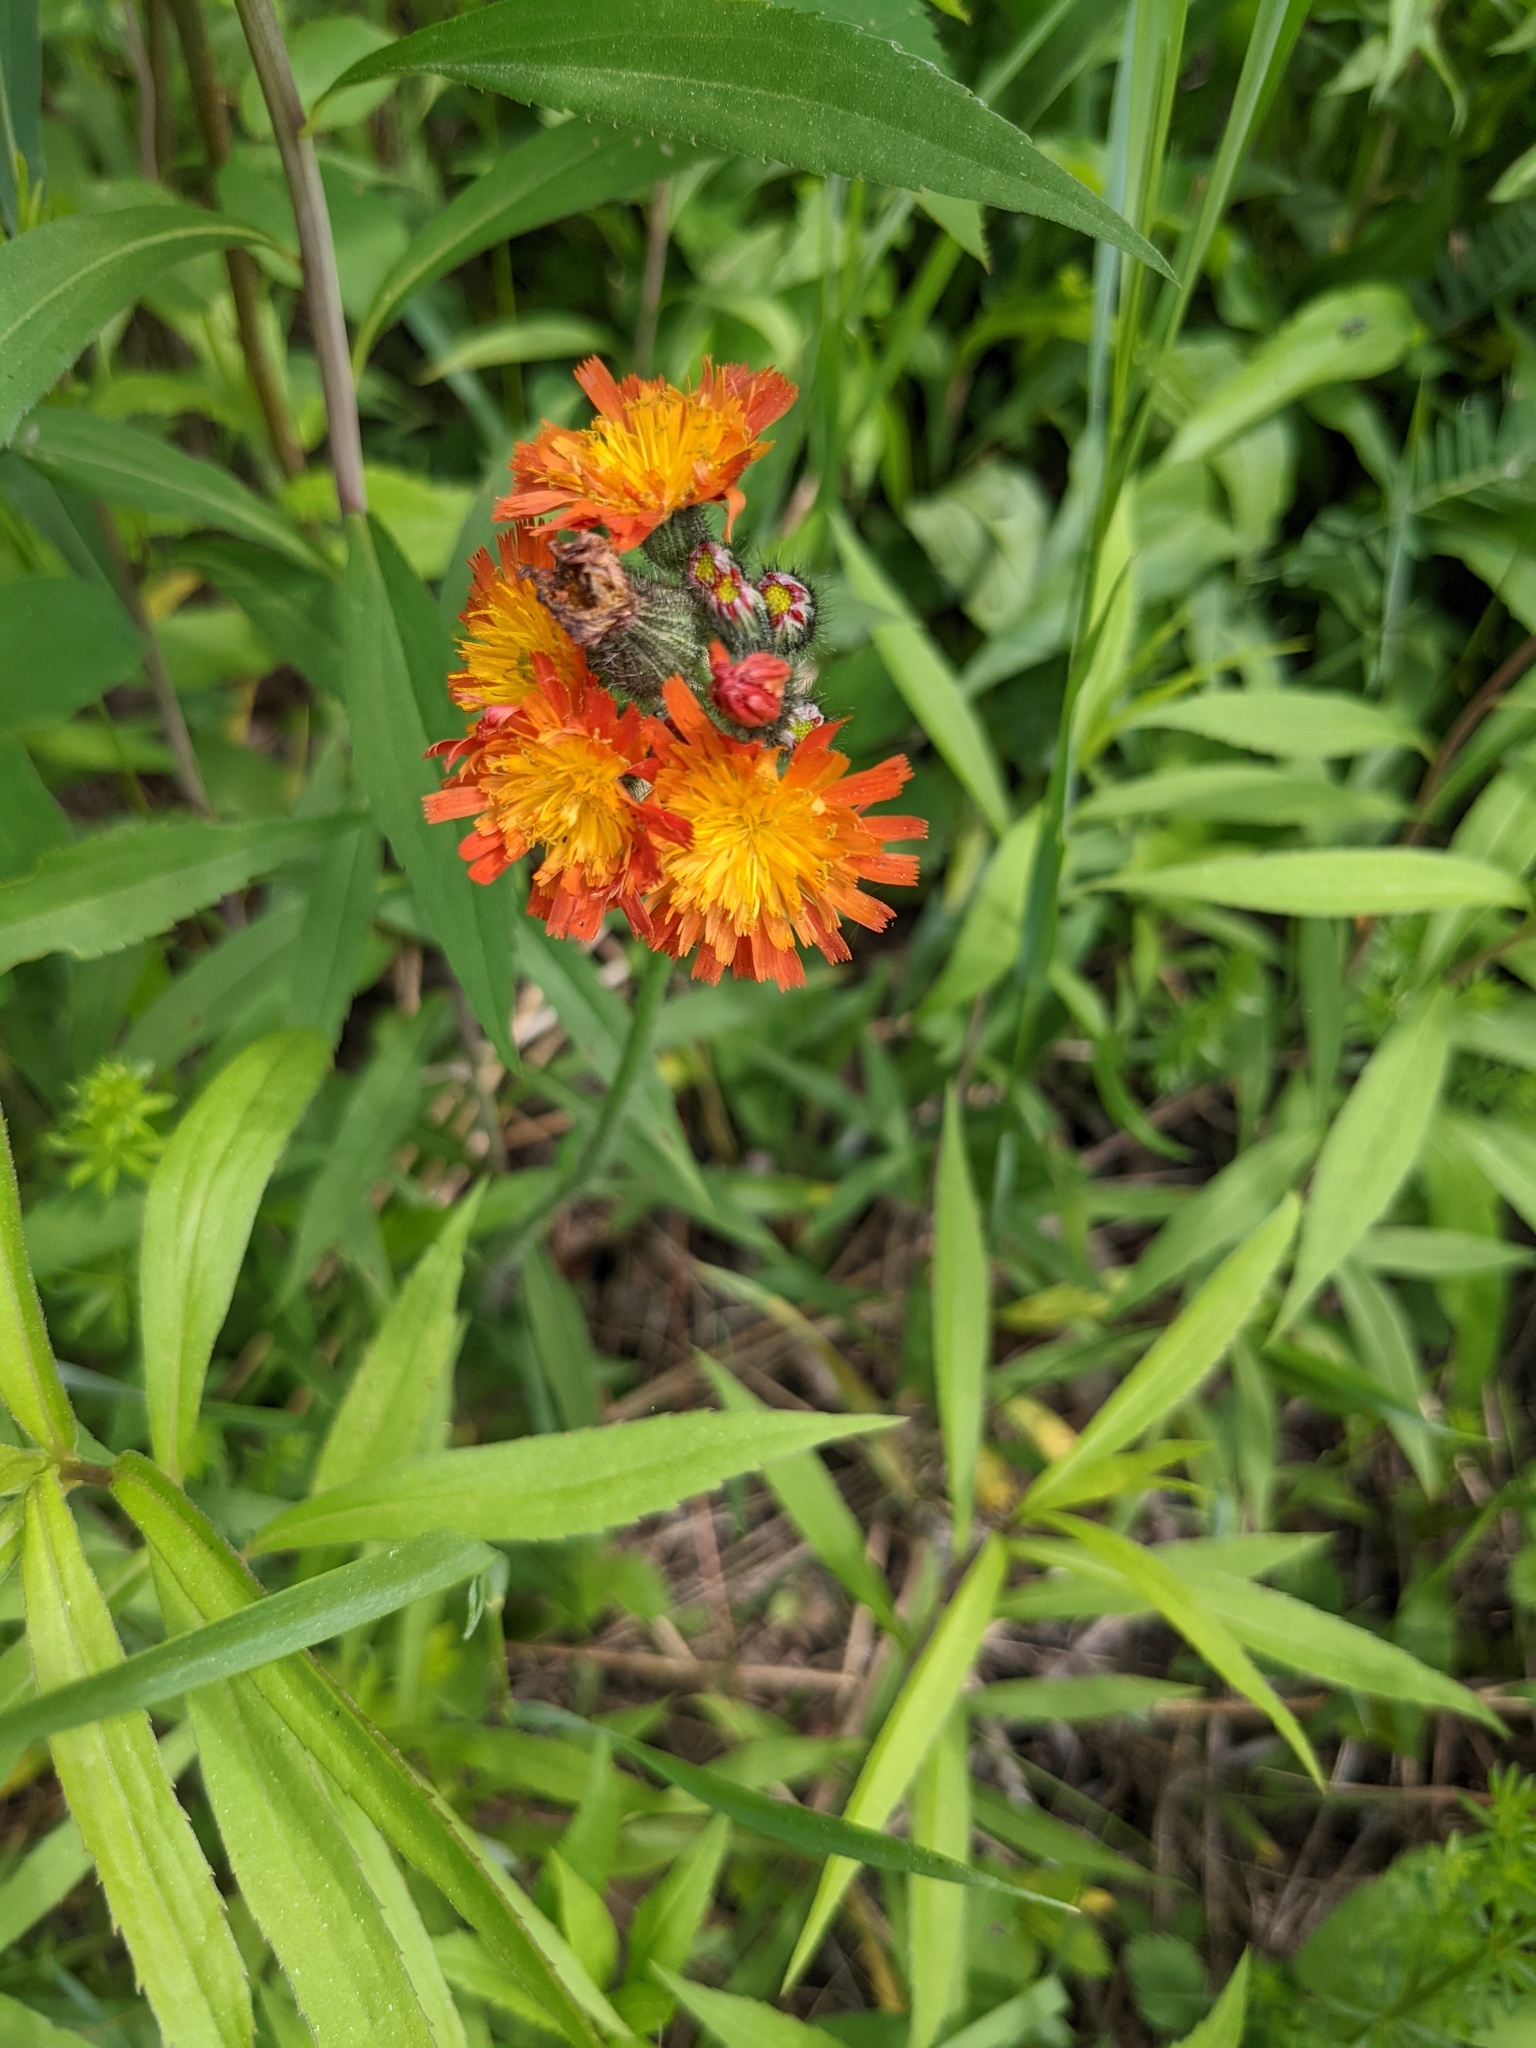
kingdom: Plantae
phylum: Tracheophyta
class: Magnoliopsida
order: Asterales
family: Asteraceae
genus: Pilosella
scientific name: Pilosella aurantiaca
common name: Fox-and-cubs
